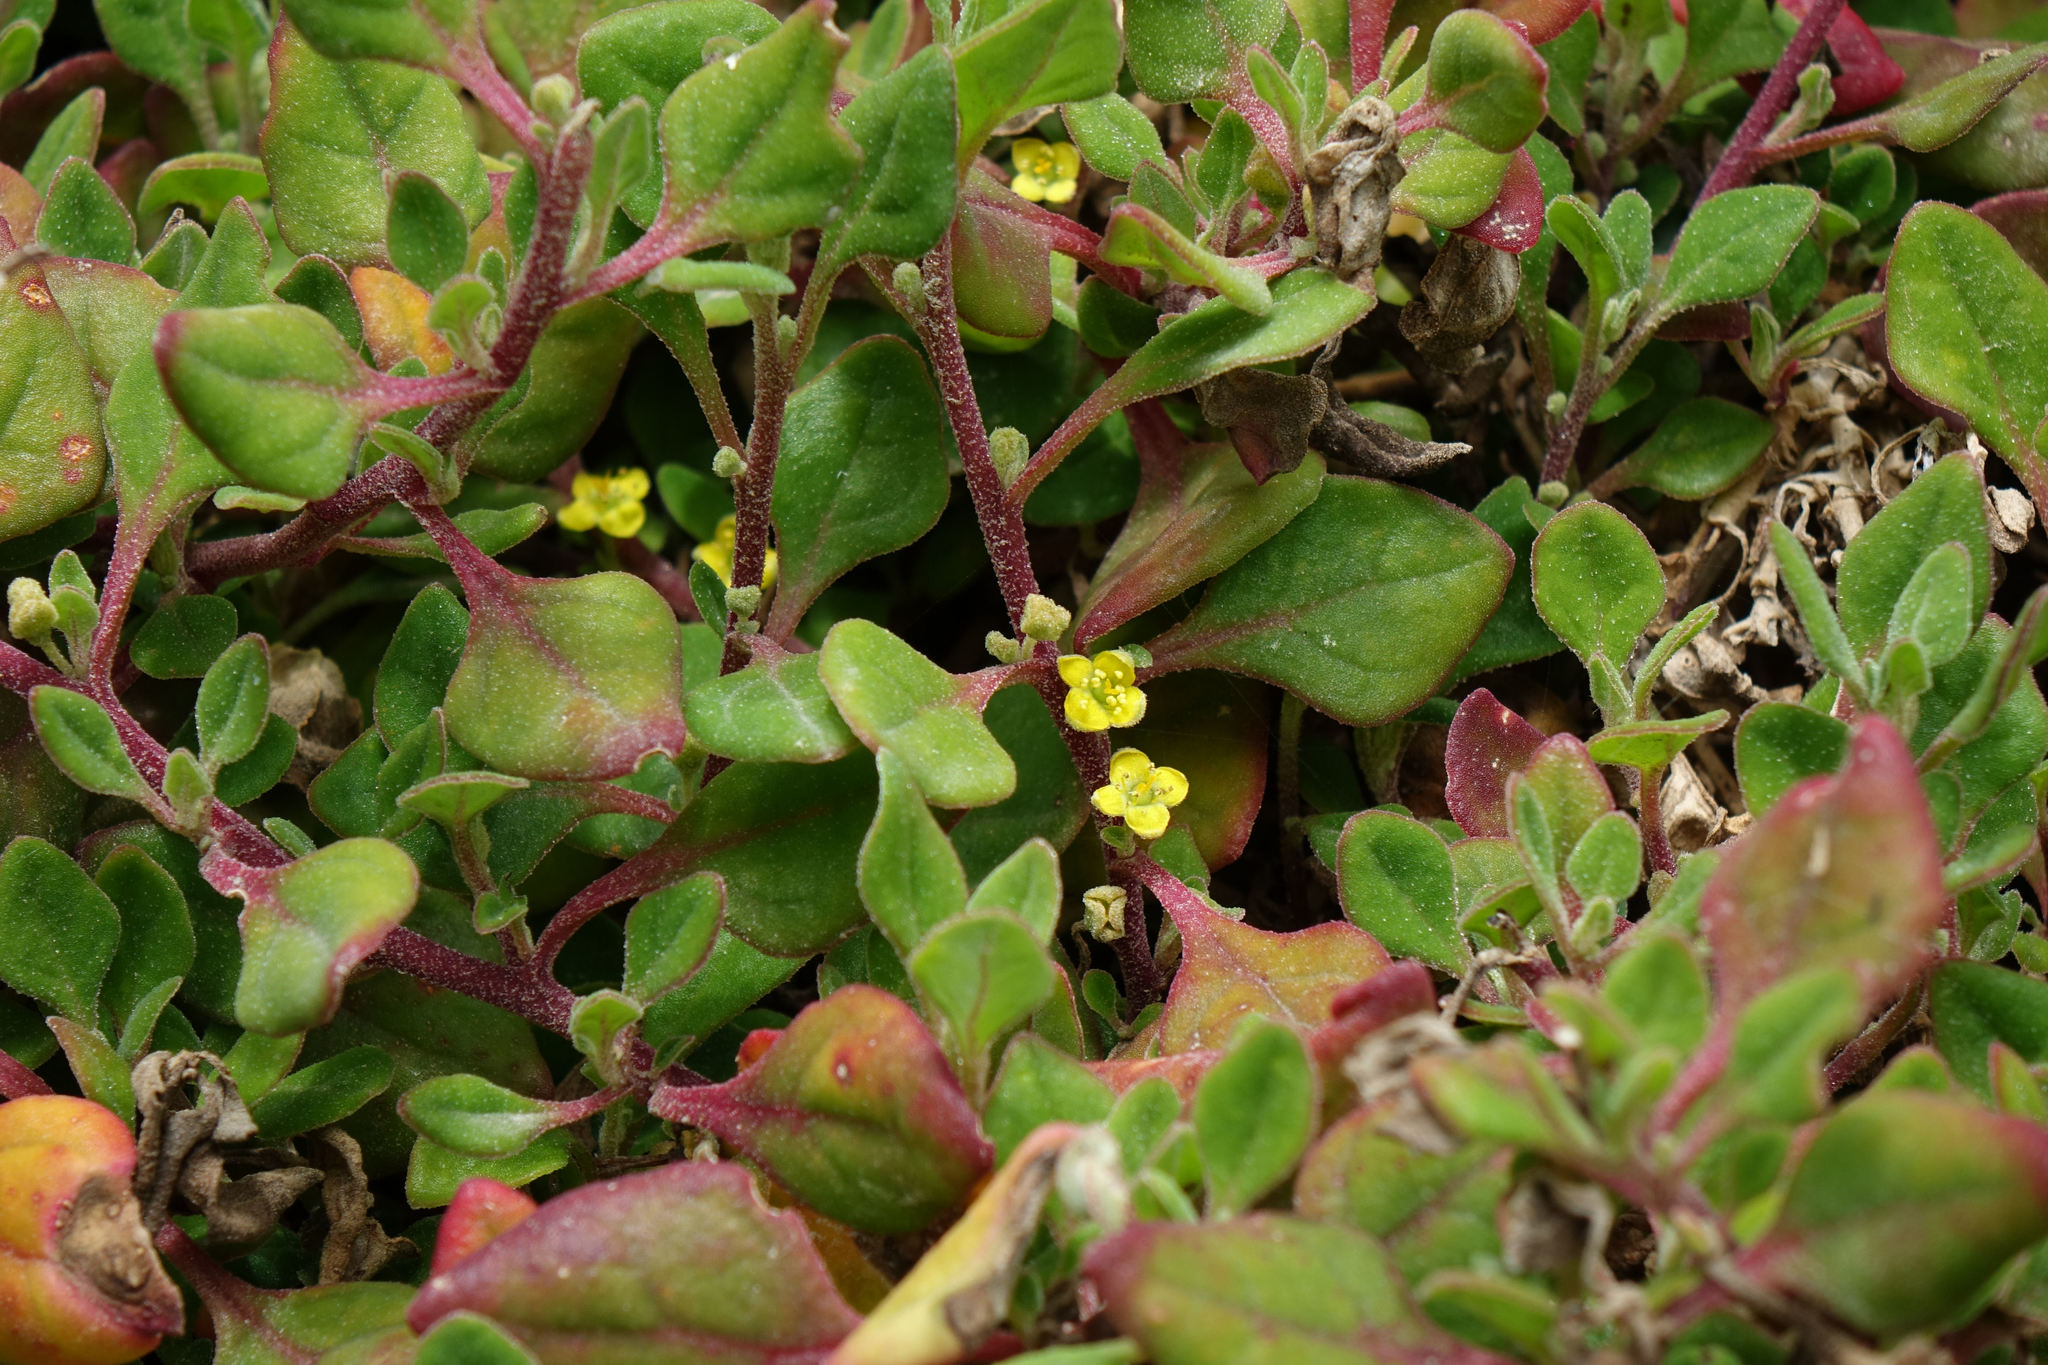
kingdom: Plantae
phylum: Tracheophyta
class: Magnoliopsida
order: Caryophyllales
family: Aizoaceae
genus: Tetragonia
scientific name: Tetragonia implexicoma
